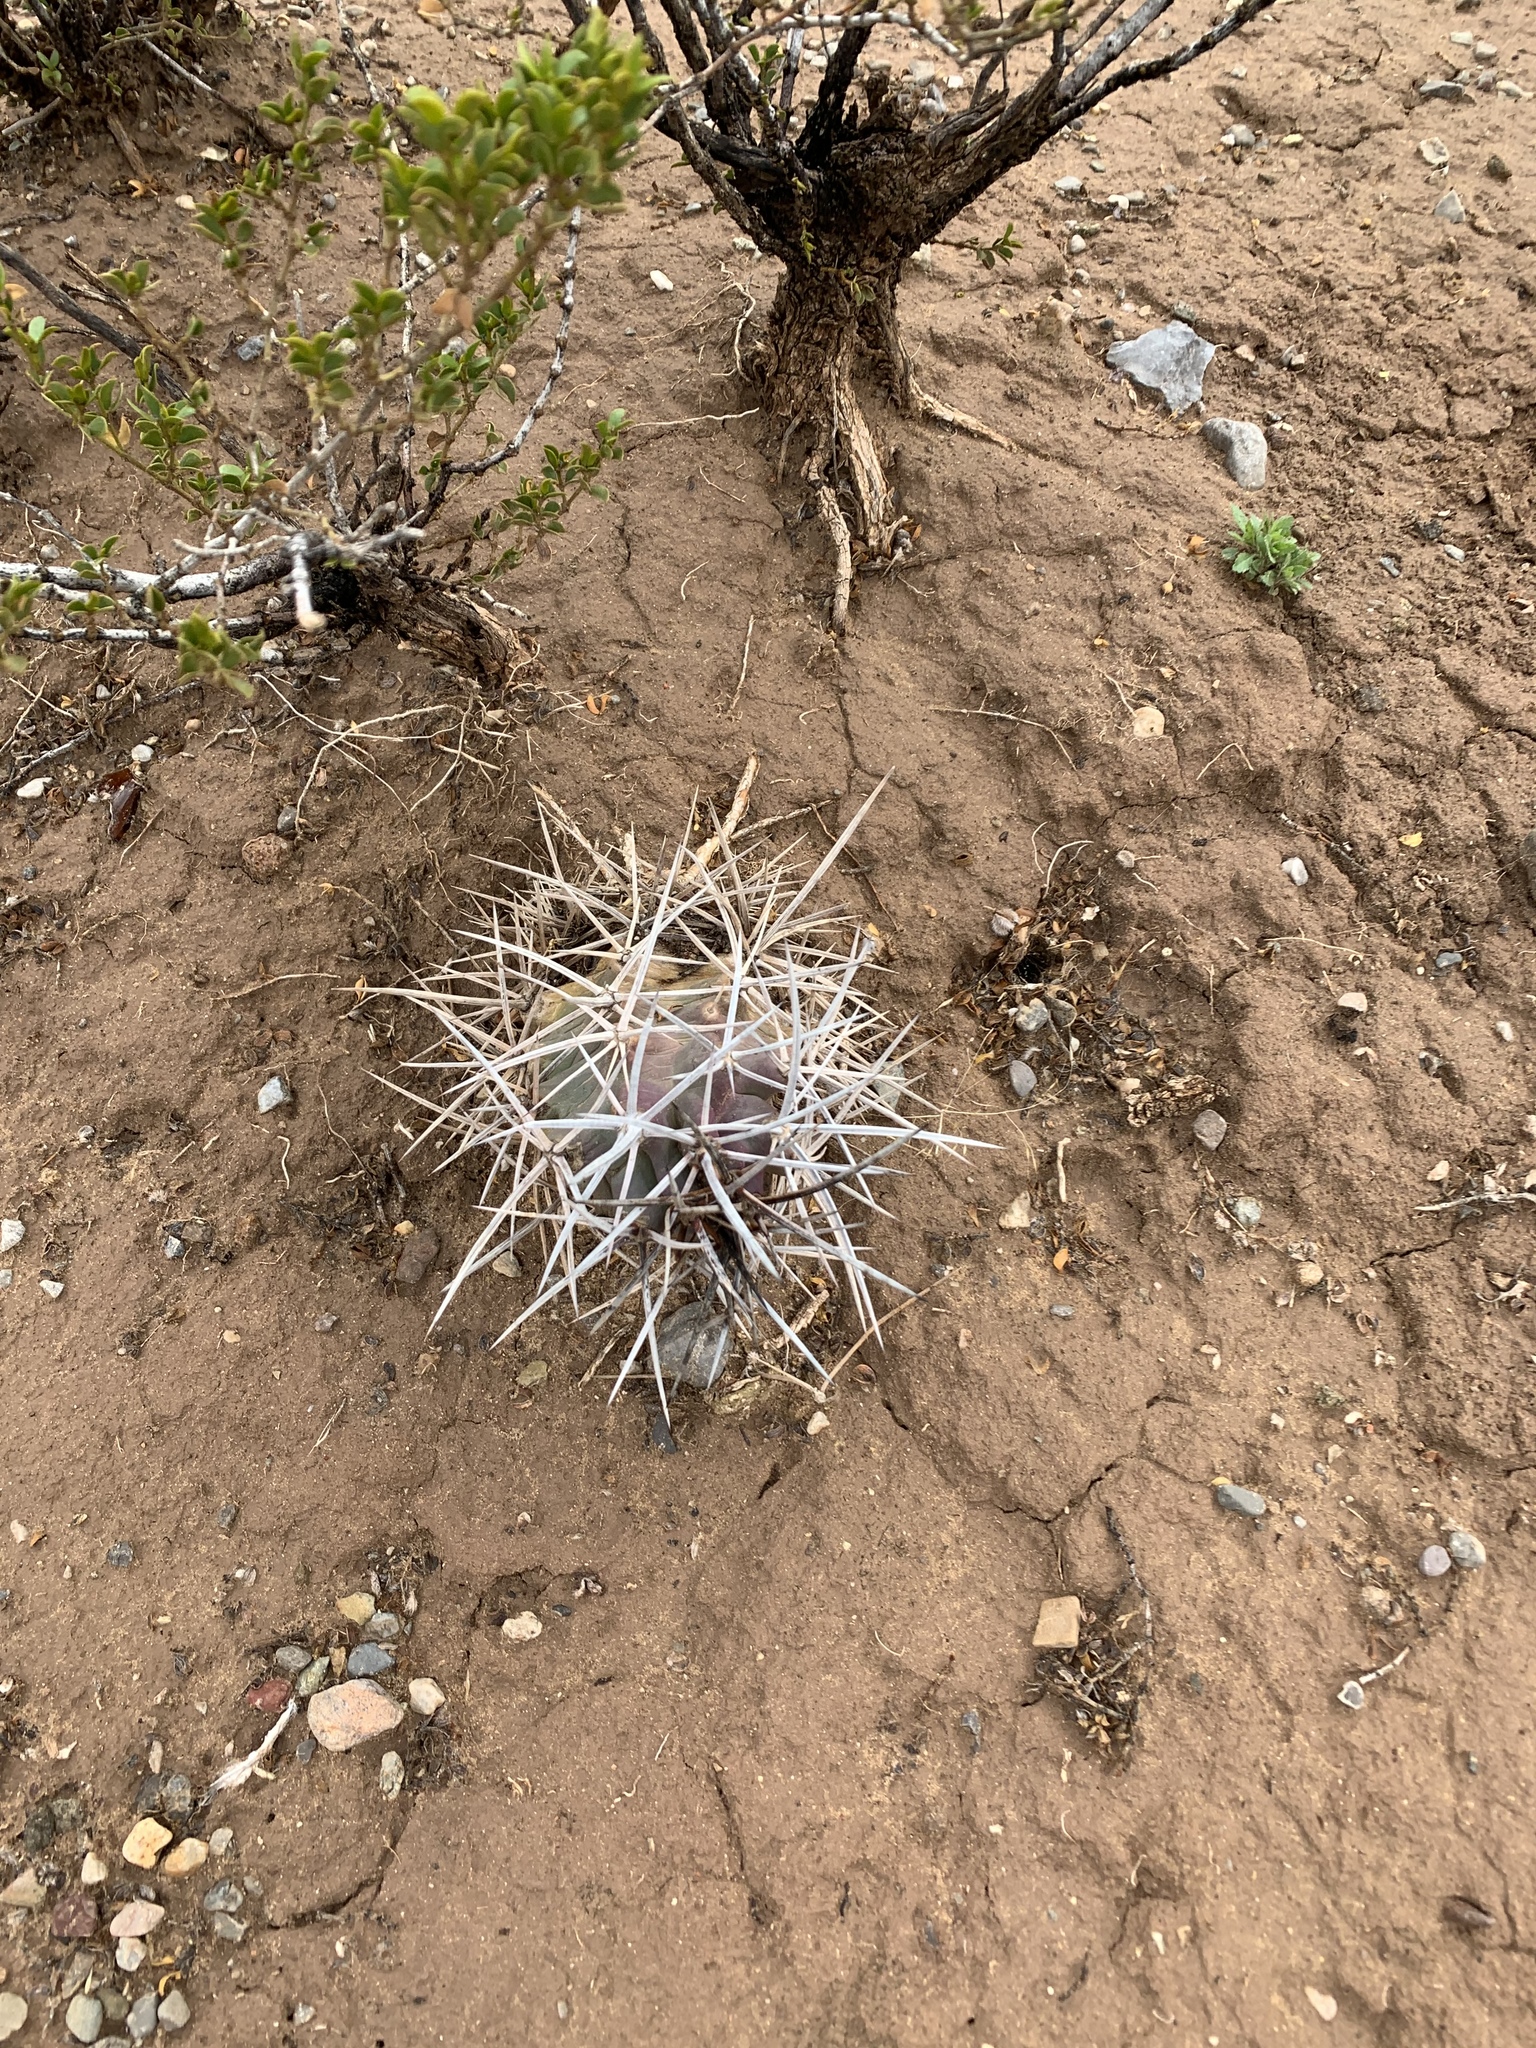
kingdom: Plantae
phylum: Tracheophyta
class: Magnoliopsida
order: Caryophyllales
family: Cactaceae
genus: Echinocereus
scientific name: Echinocereus triglochidiatus
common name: Claretcup hedgehog
